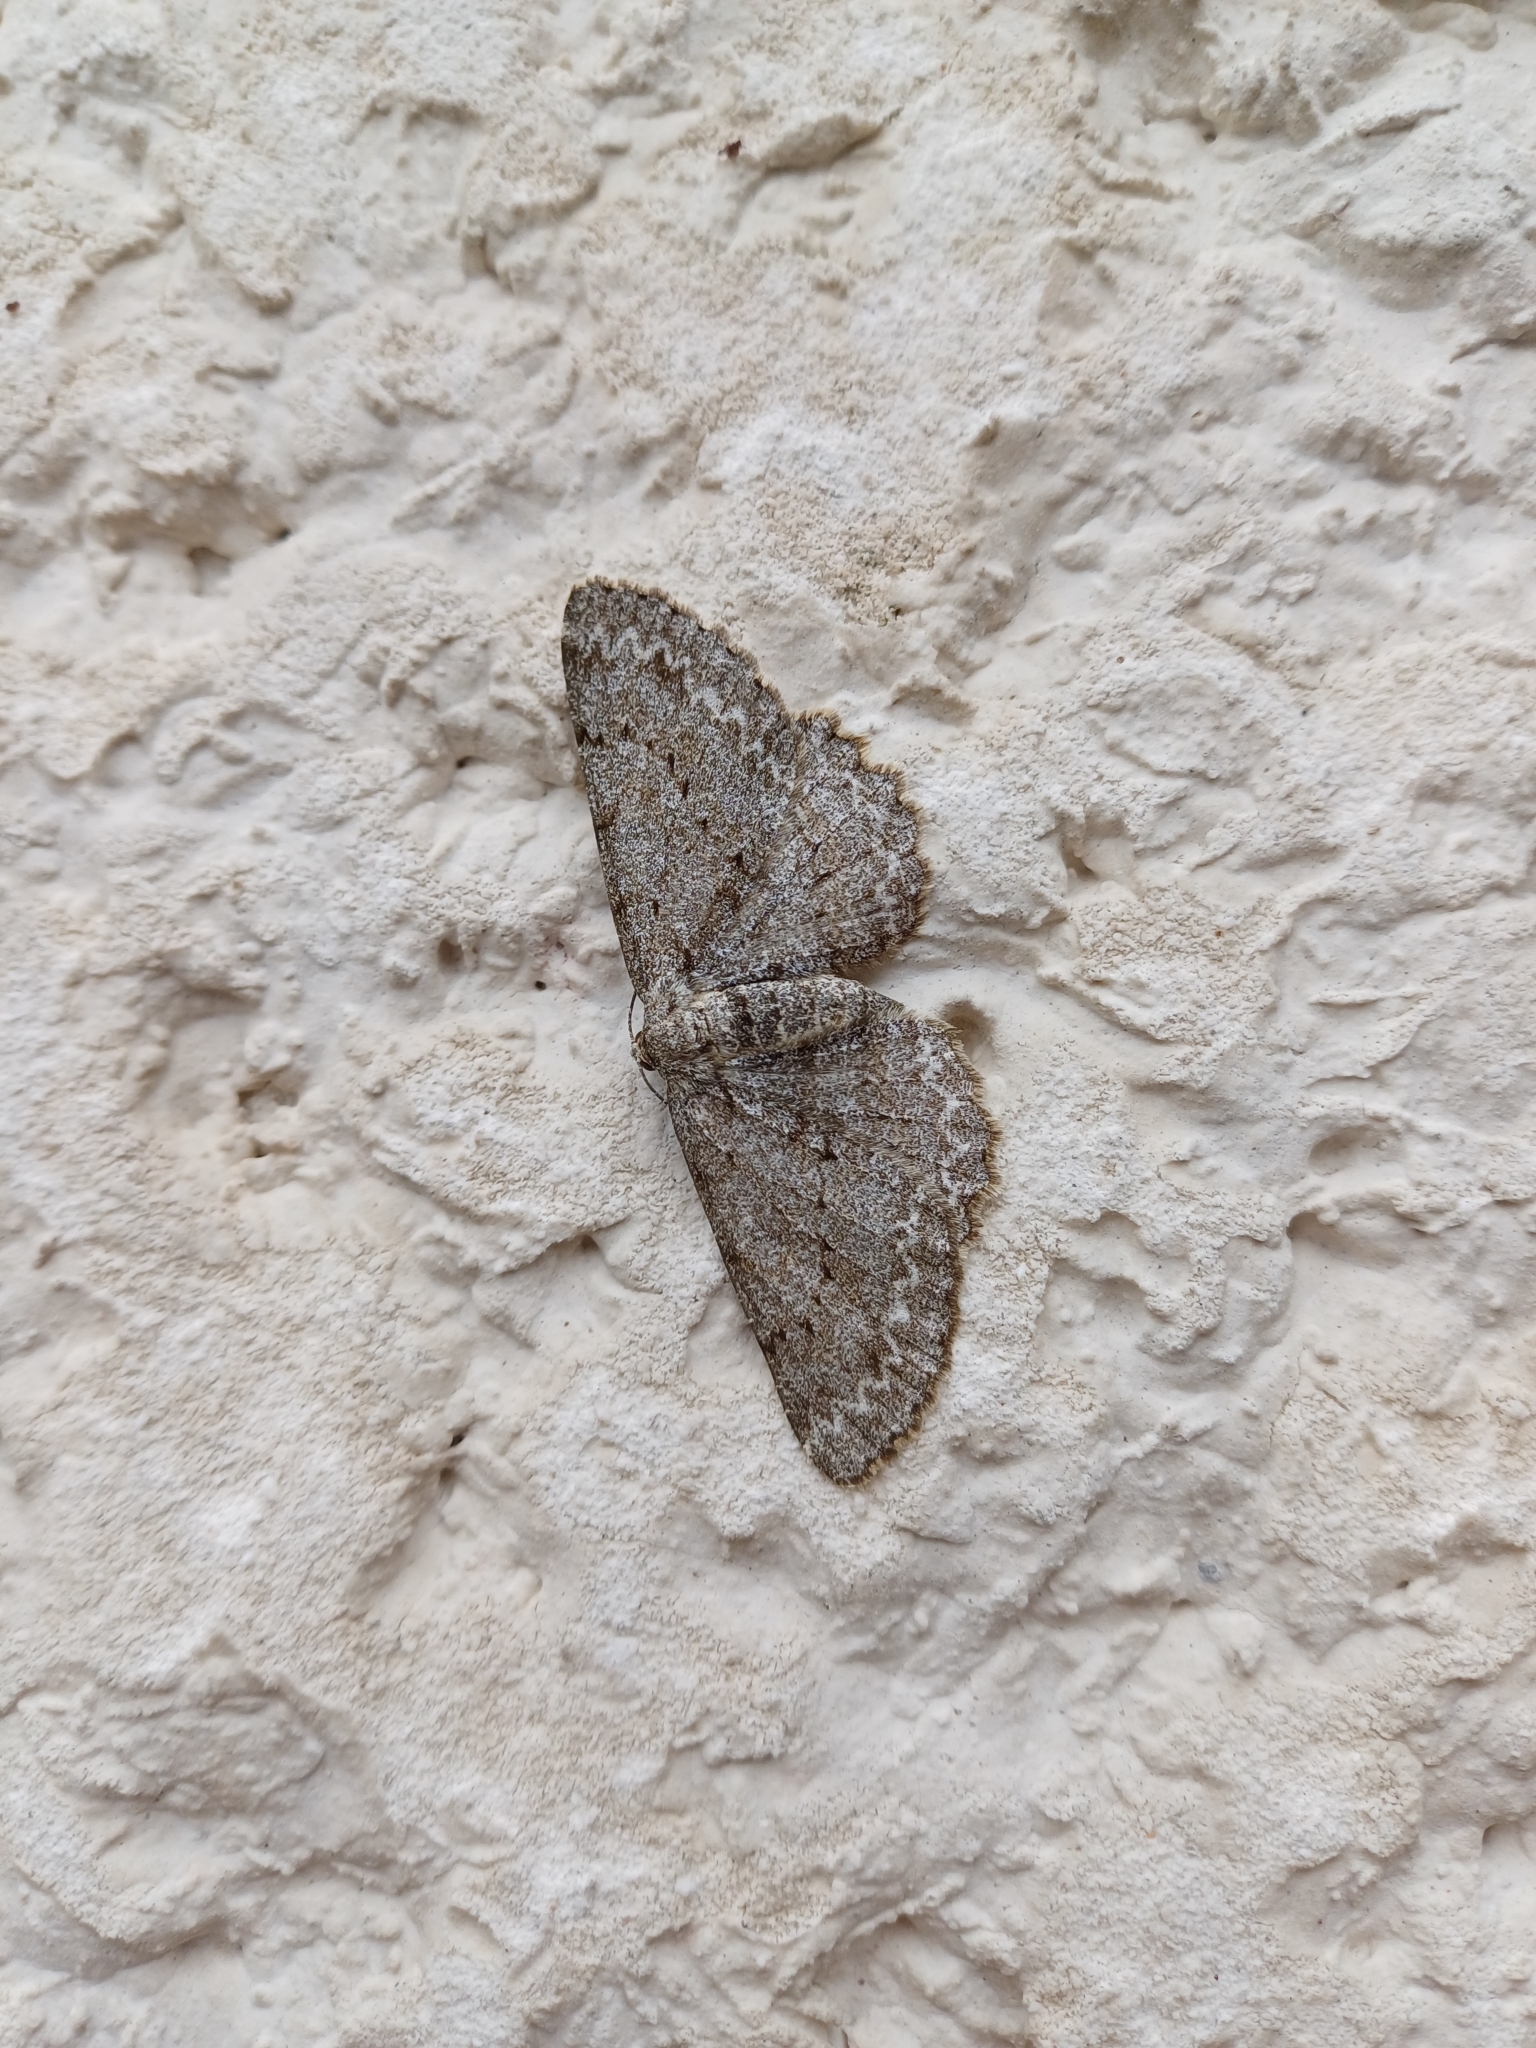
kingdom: Animalia
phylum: Arthropoda
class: Insecta
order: Lepidoptera
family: Geometridae
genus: Hypomecis
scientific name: Hypomecis punctinalis
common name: Pale oak beauty
